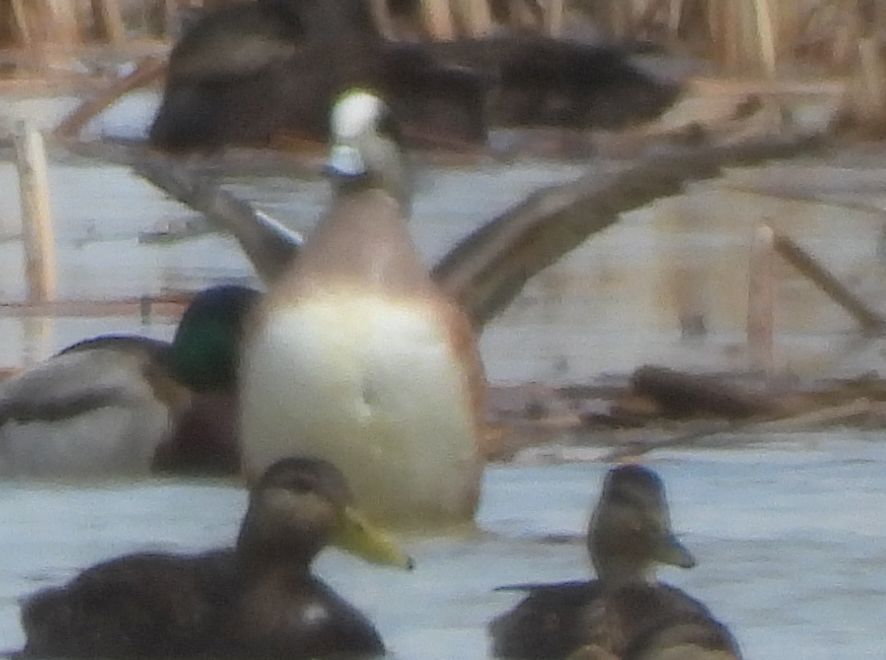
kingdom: Animalia
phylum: Chordata
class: Aves
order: Anseriformes
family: Anatidae
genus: Mareca
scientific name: Mareca americana
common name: American wigeon
